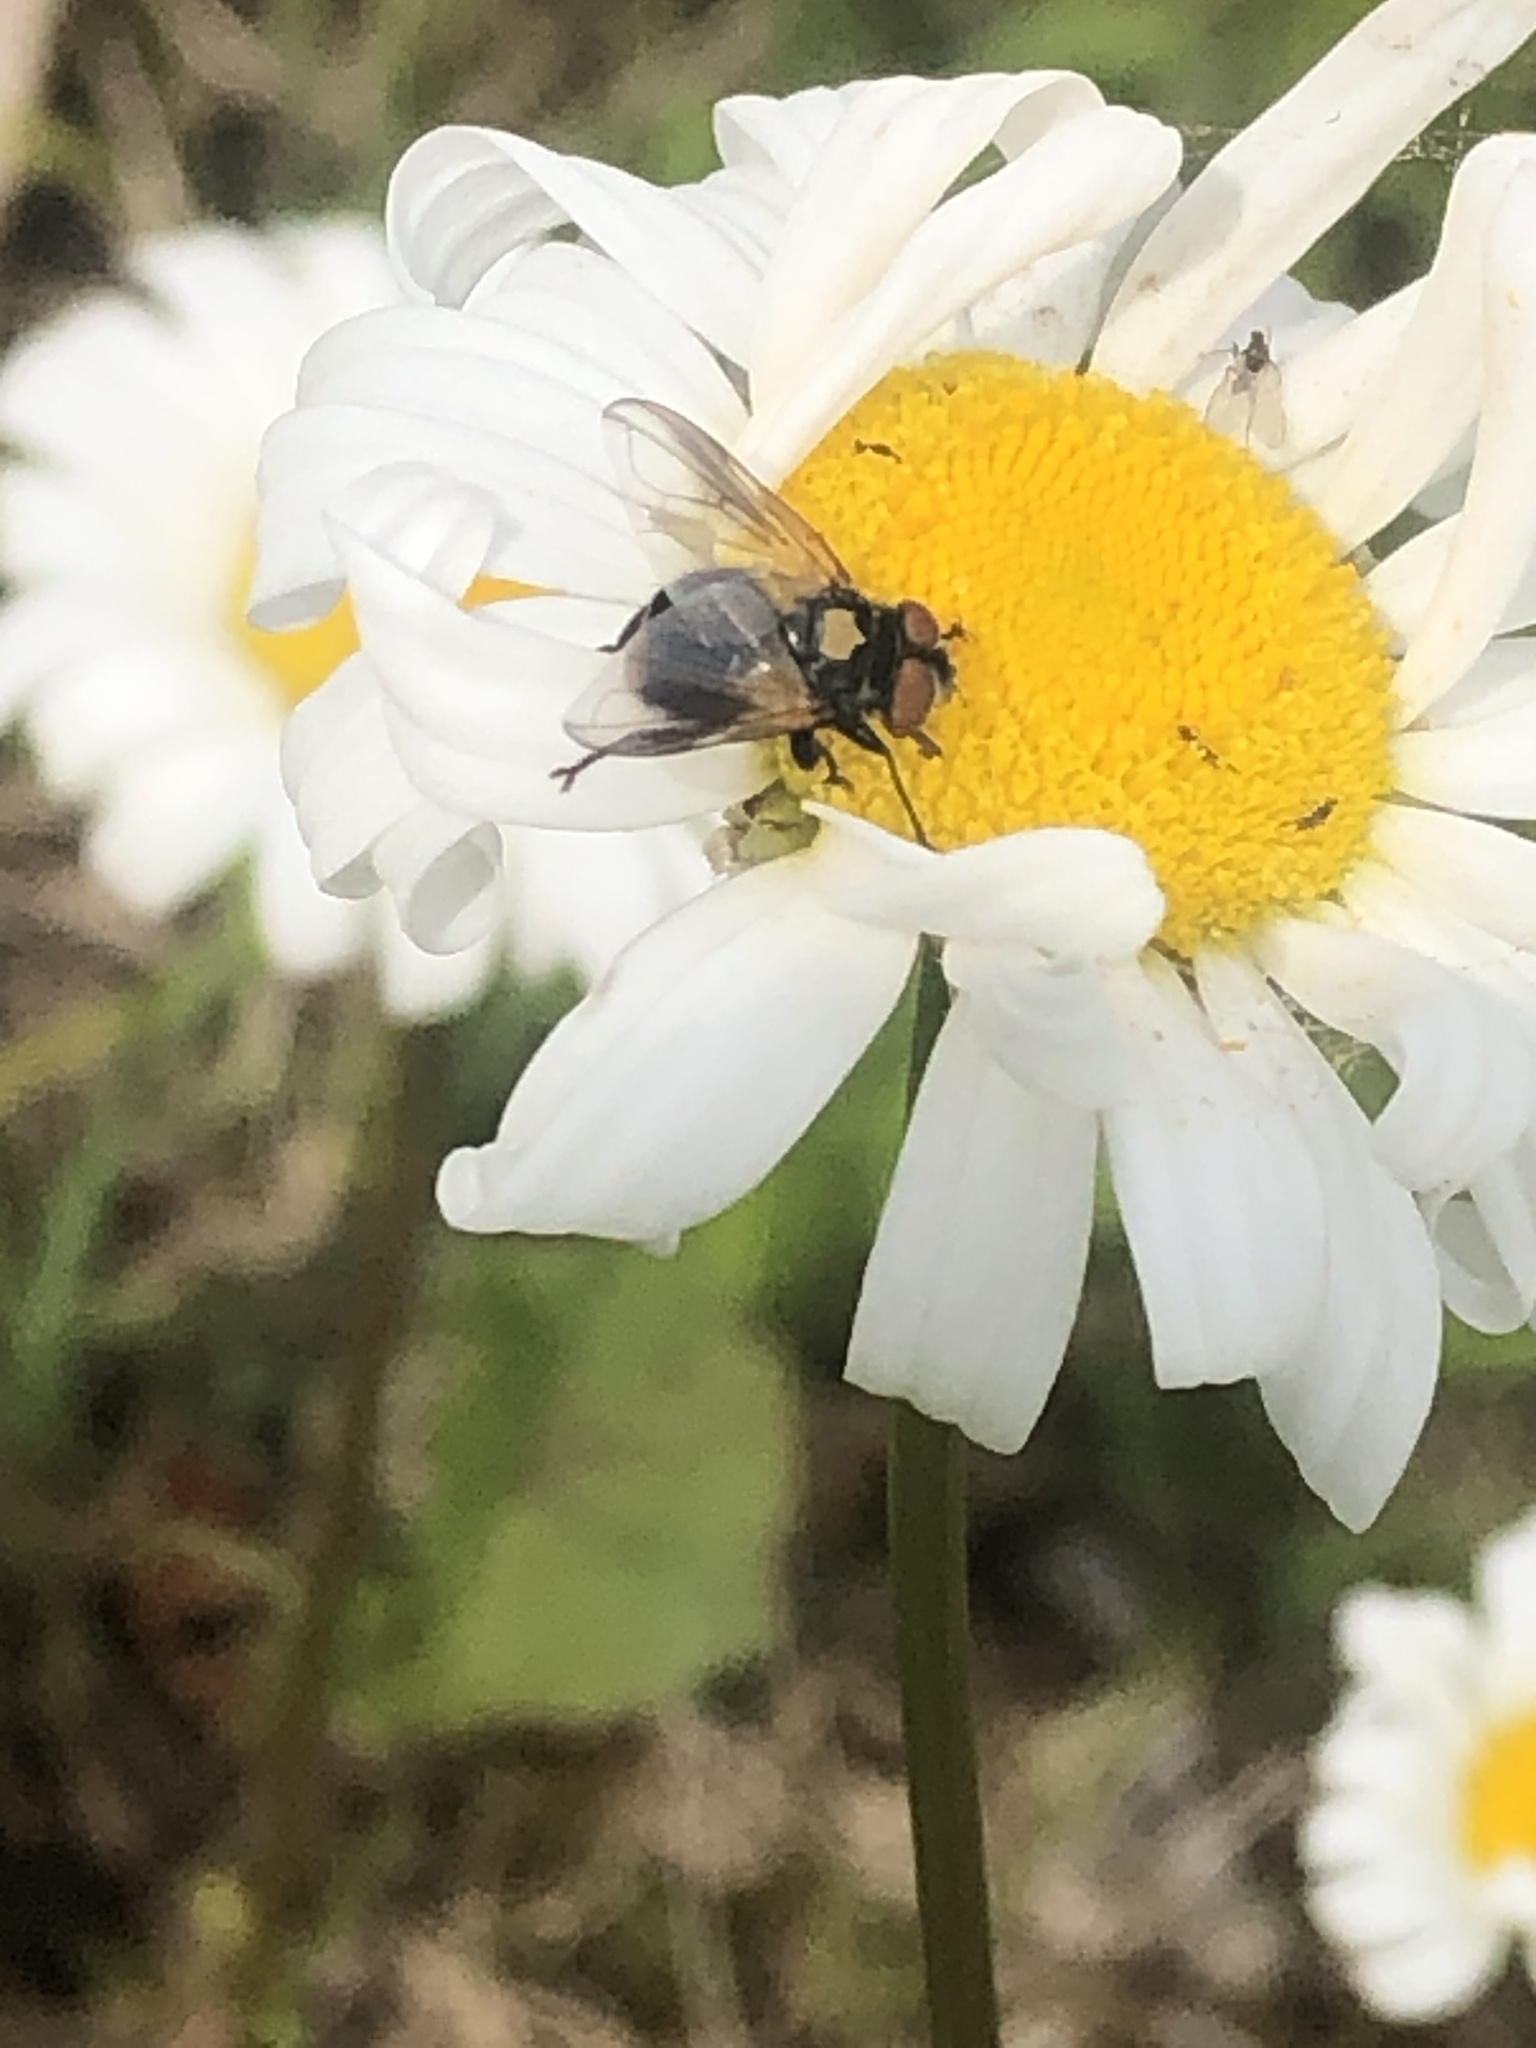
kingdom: Animalia
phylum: Arthropoda
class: Insecta
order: Diptera
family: Tachinidae
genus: Phasia
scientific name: Phasia aurulans
